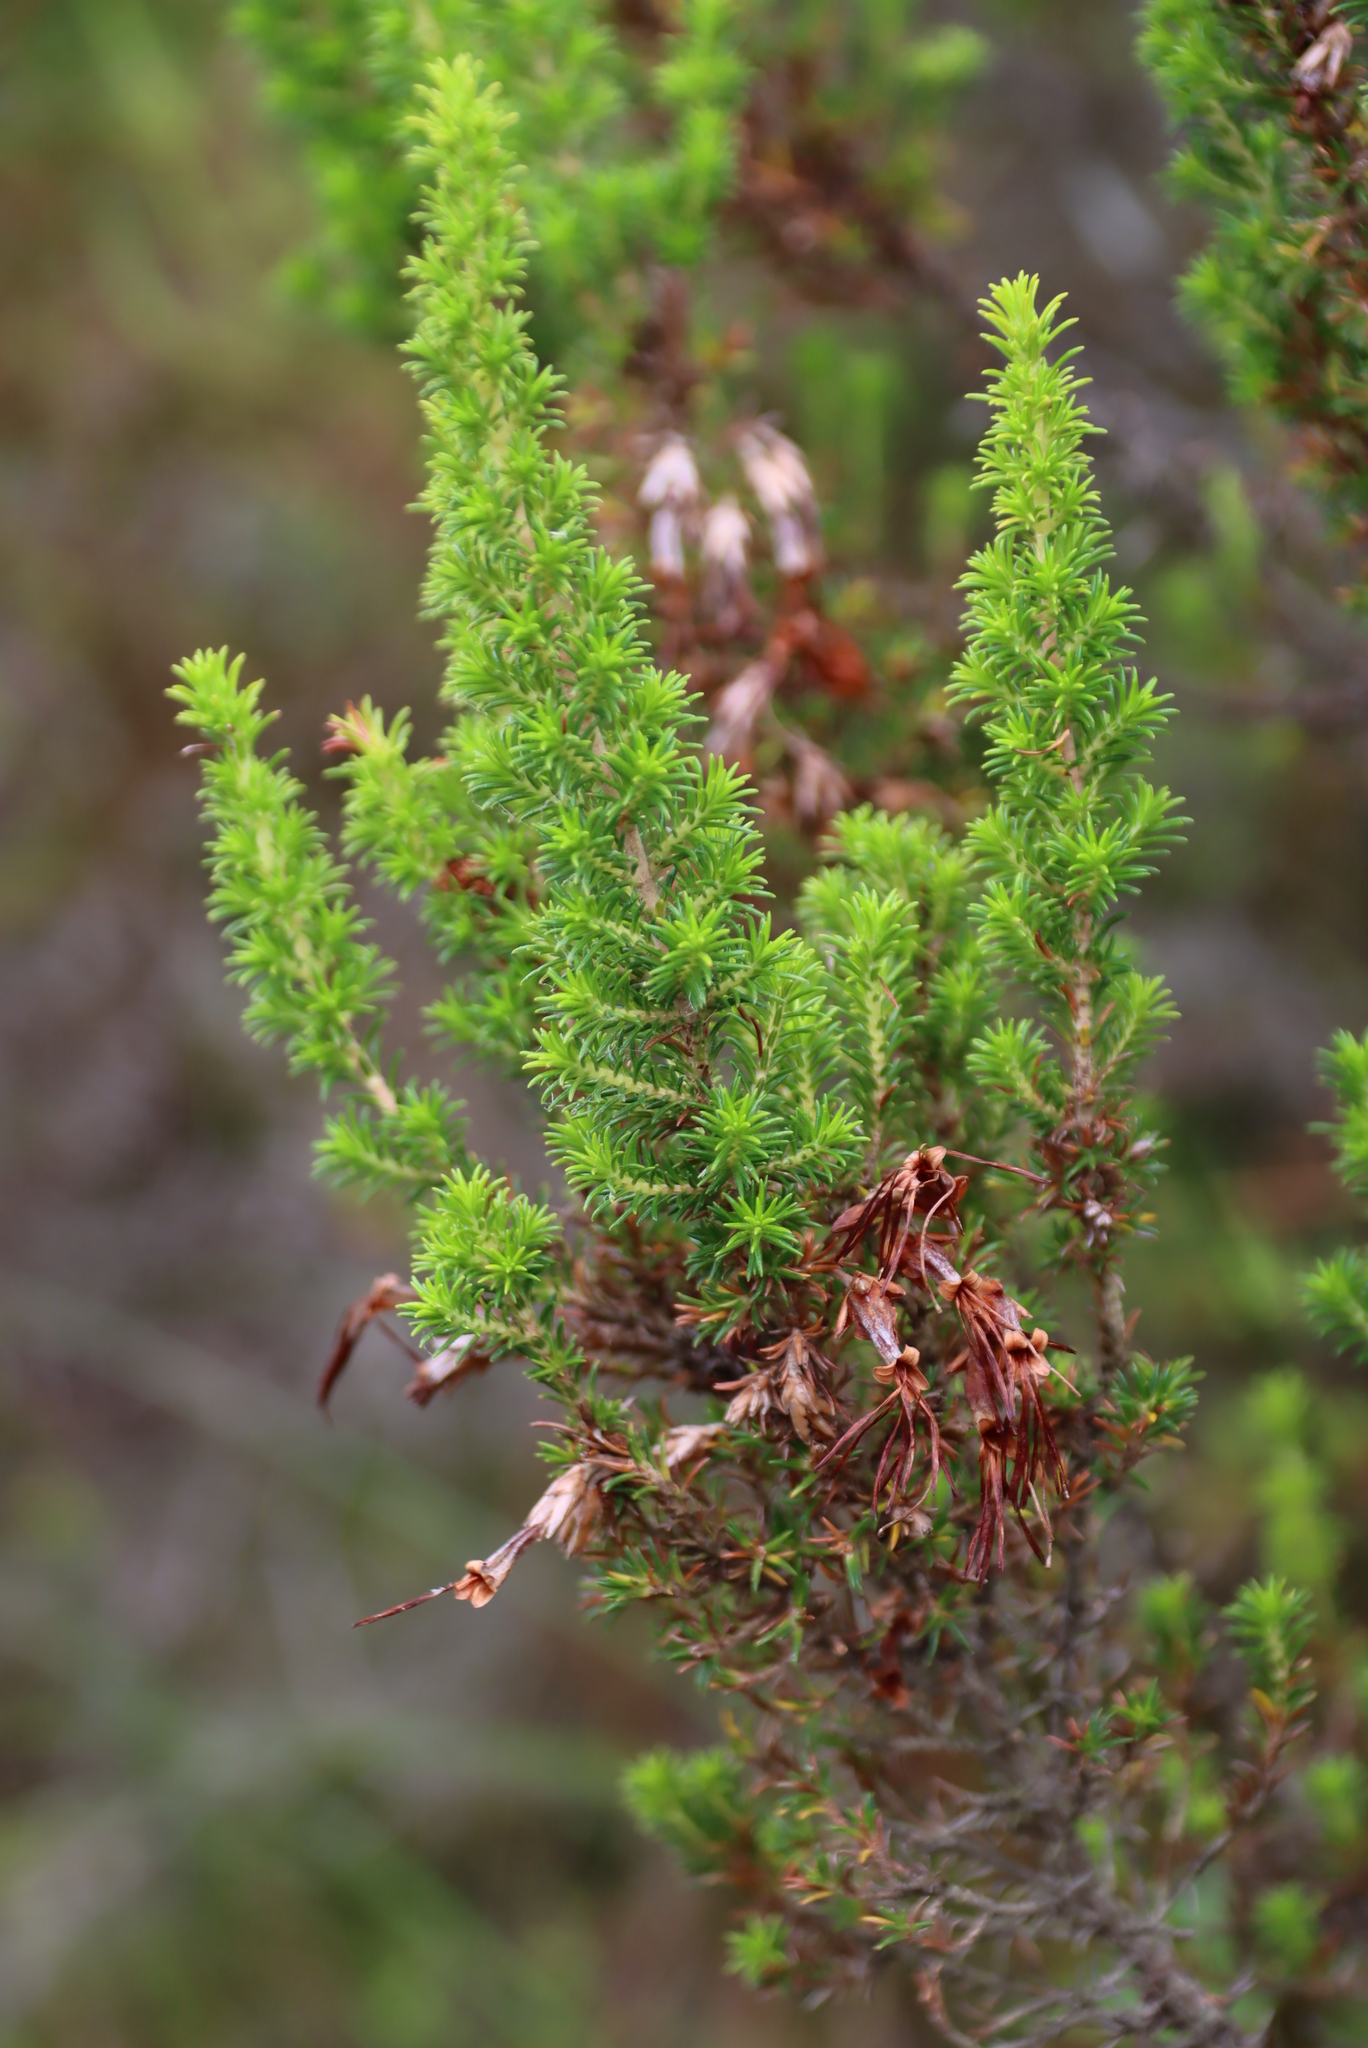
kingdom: Plantae
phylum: Tracheophyta
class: Magnoliopsida
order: Ericales
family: Ericaceae
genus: Erica
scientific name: Erica coccinea
